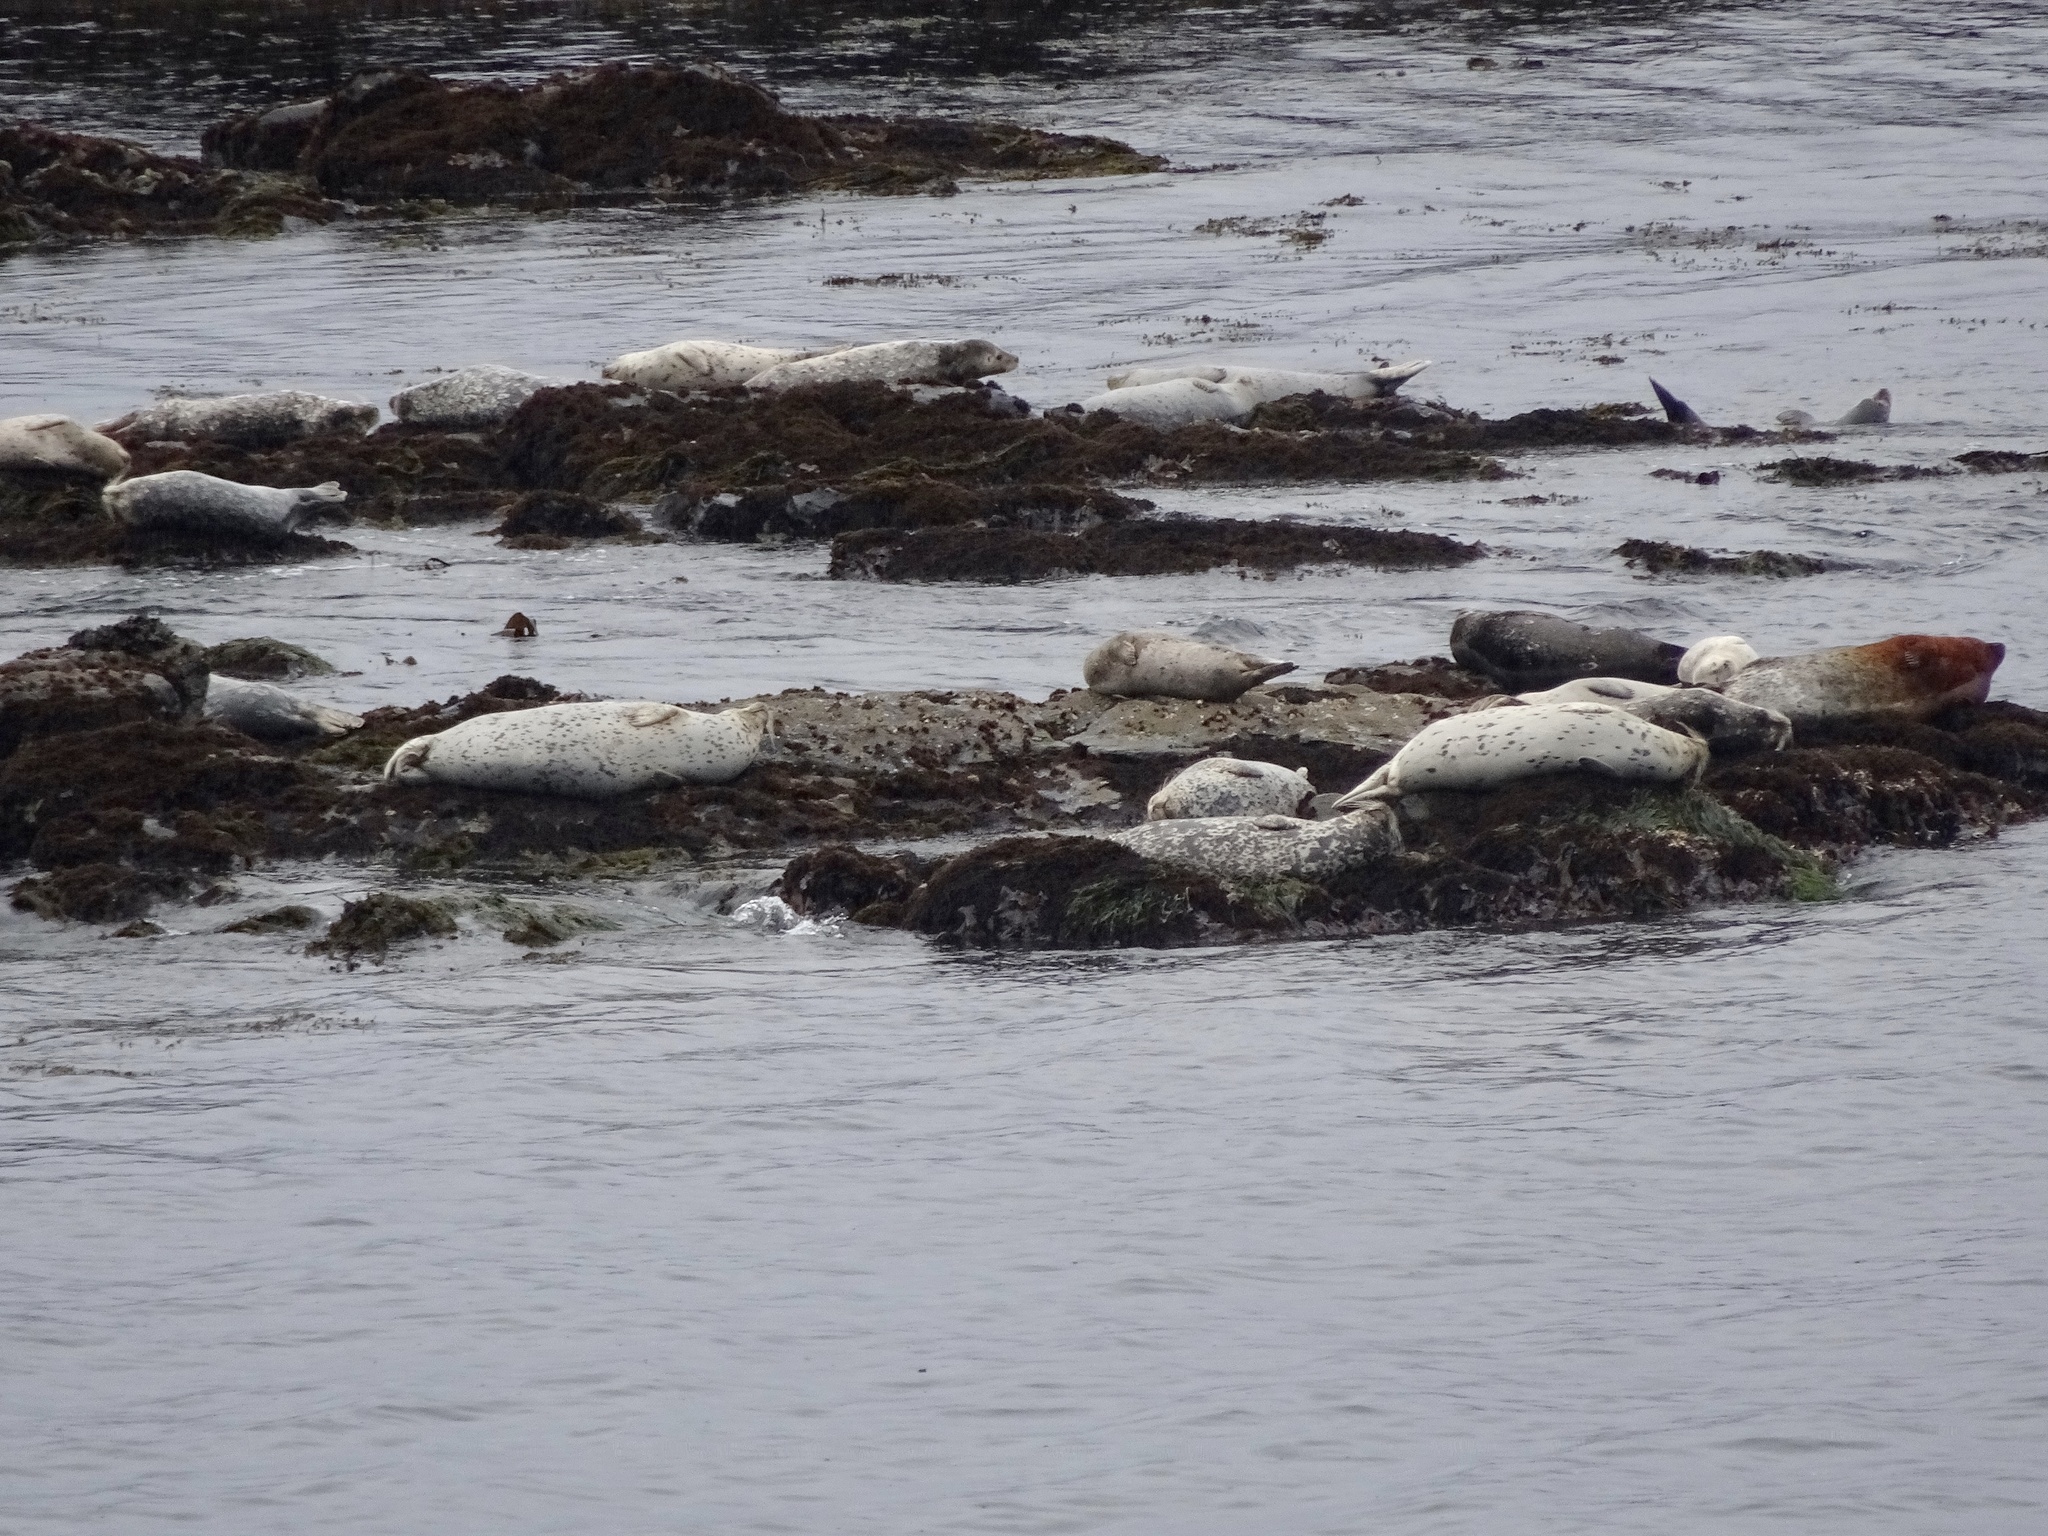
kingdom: Animalia
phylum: Chordata
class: Mammalia
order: Carnivora
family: Phocidae
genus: Phoca
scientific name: Phoca vitulina
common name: Harbor seal
